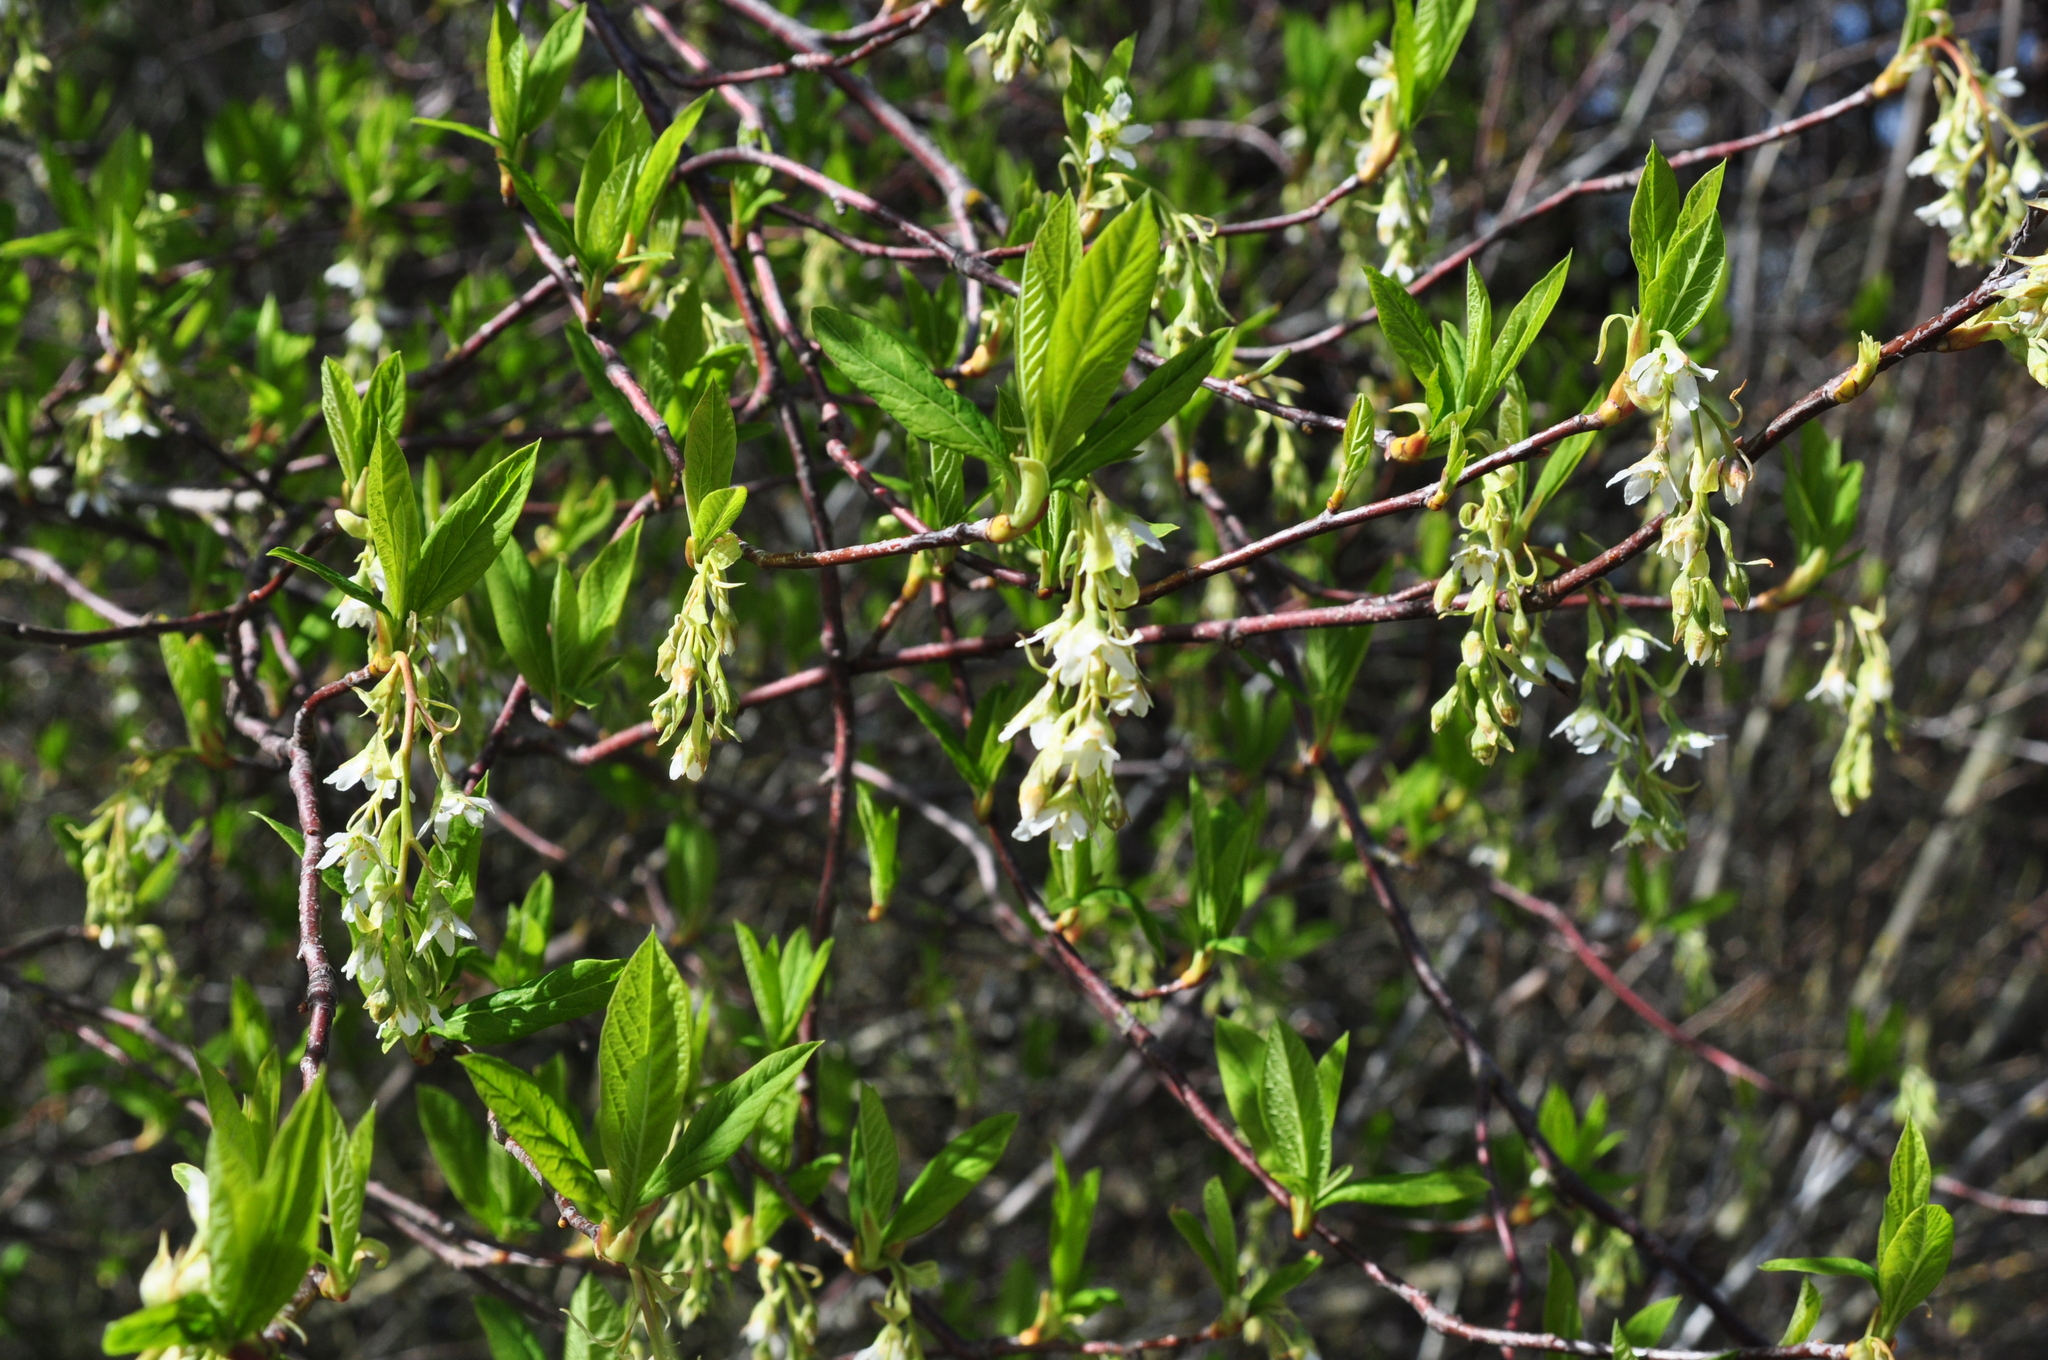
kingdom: Plantae
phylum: Tracheophyta
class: Magnoliopsida
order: Rosales
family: Rosaceae
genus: Oemleria
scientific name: Oemleria cerasiformis
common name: Osoberry
